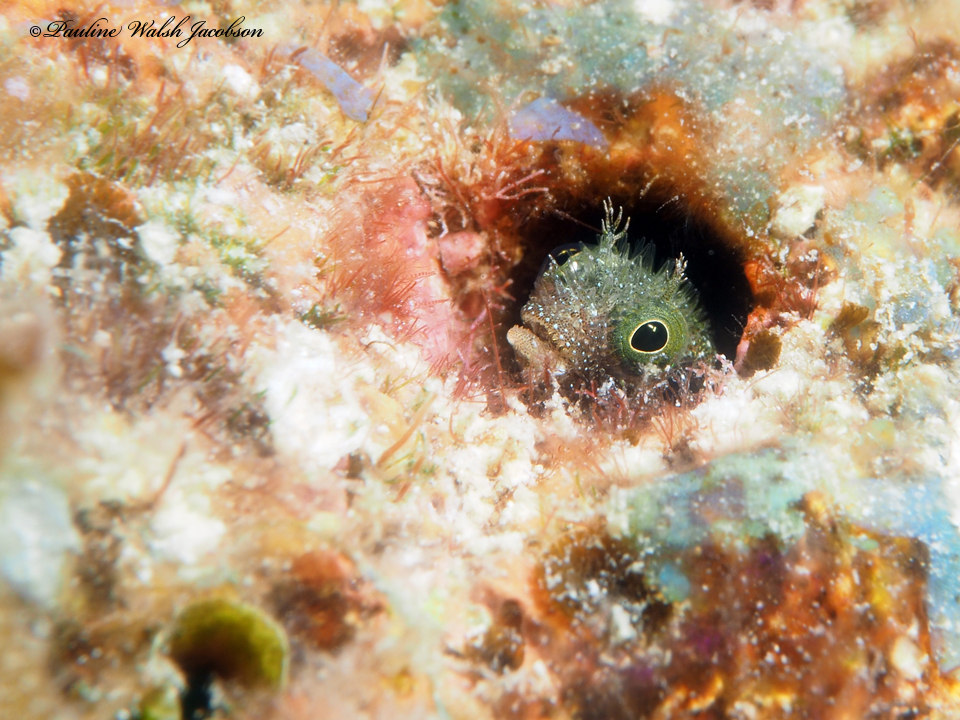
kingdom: Animalia
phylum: Chordata
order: Perciformes
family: Chaenopsidae
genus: Acanthemblemaria
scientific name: Acanthemblemaria spinosa
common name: Spinyhead blenny
